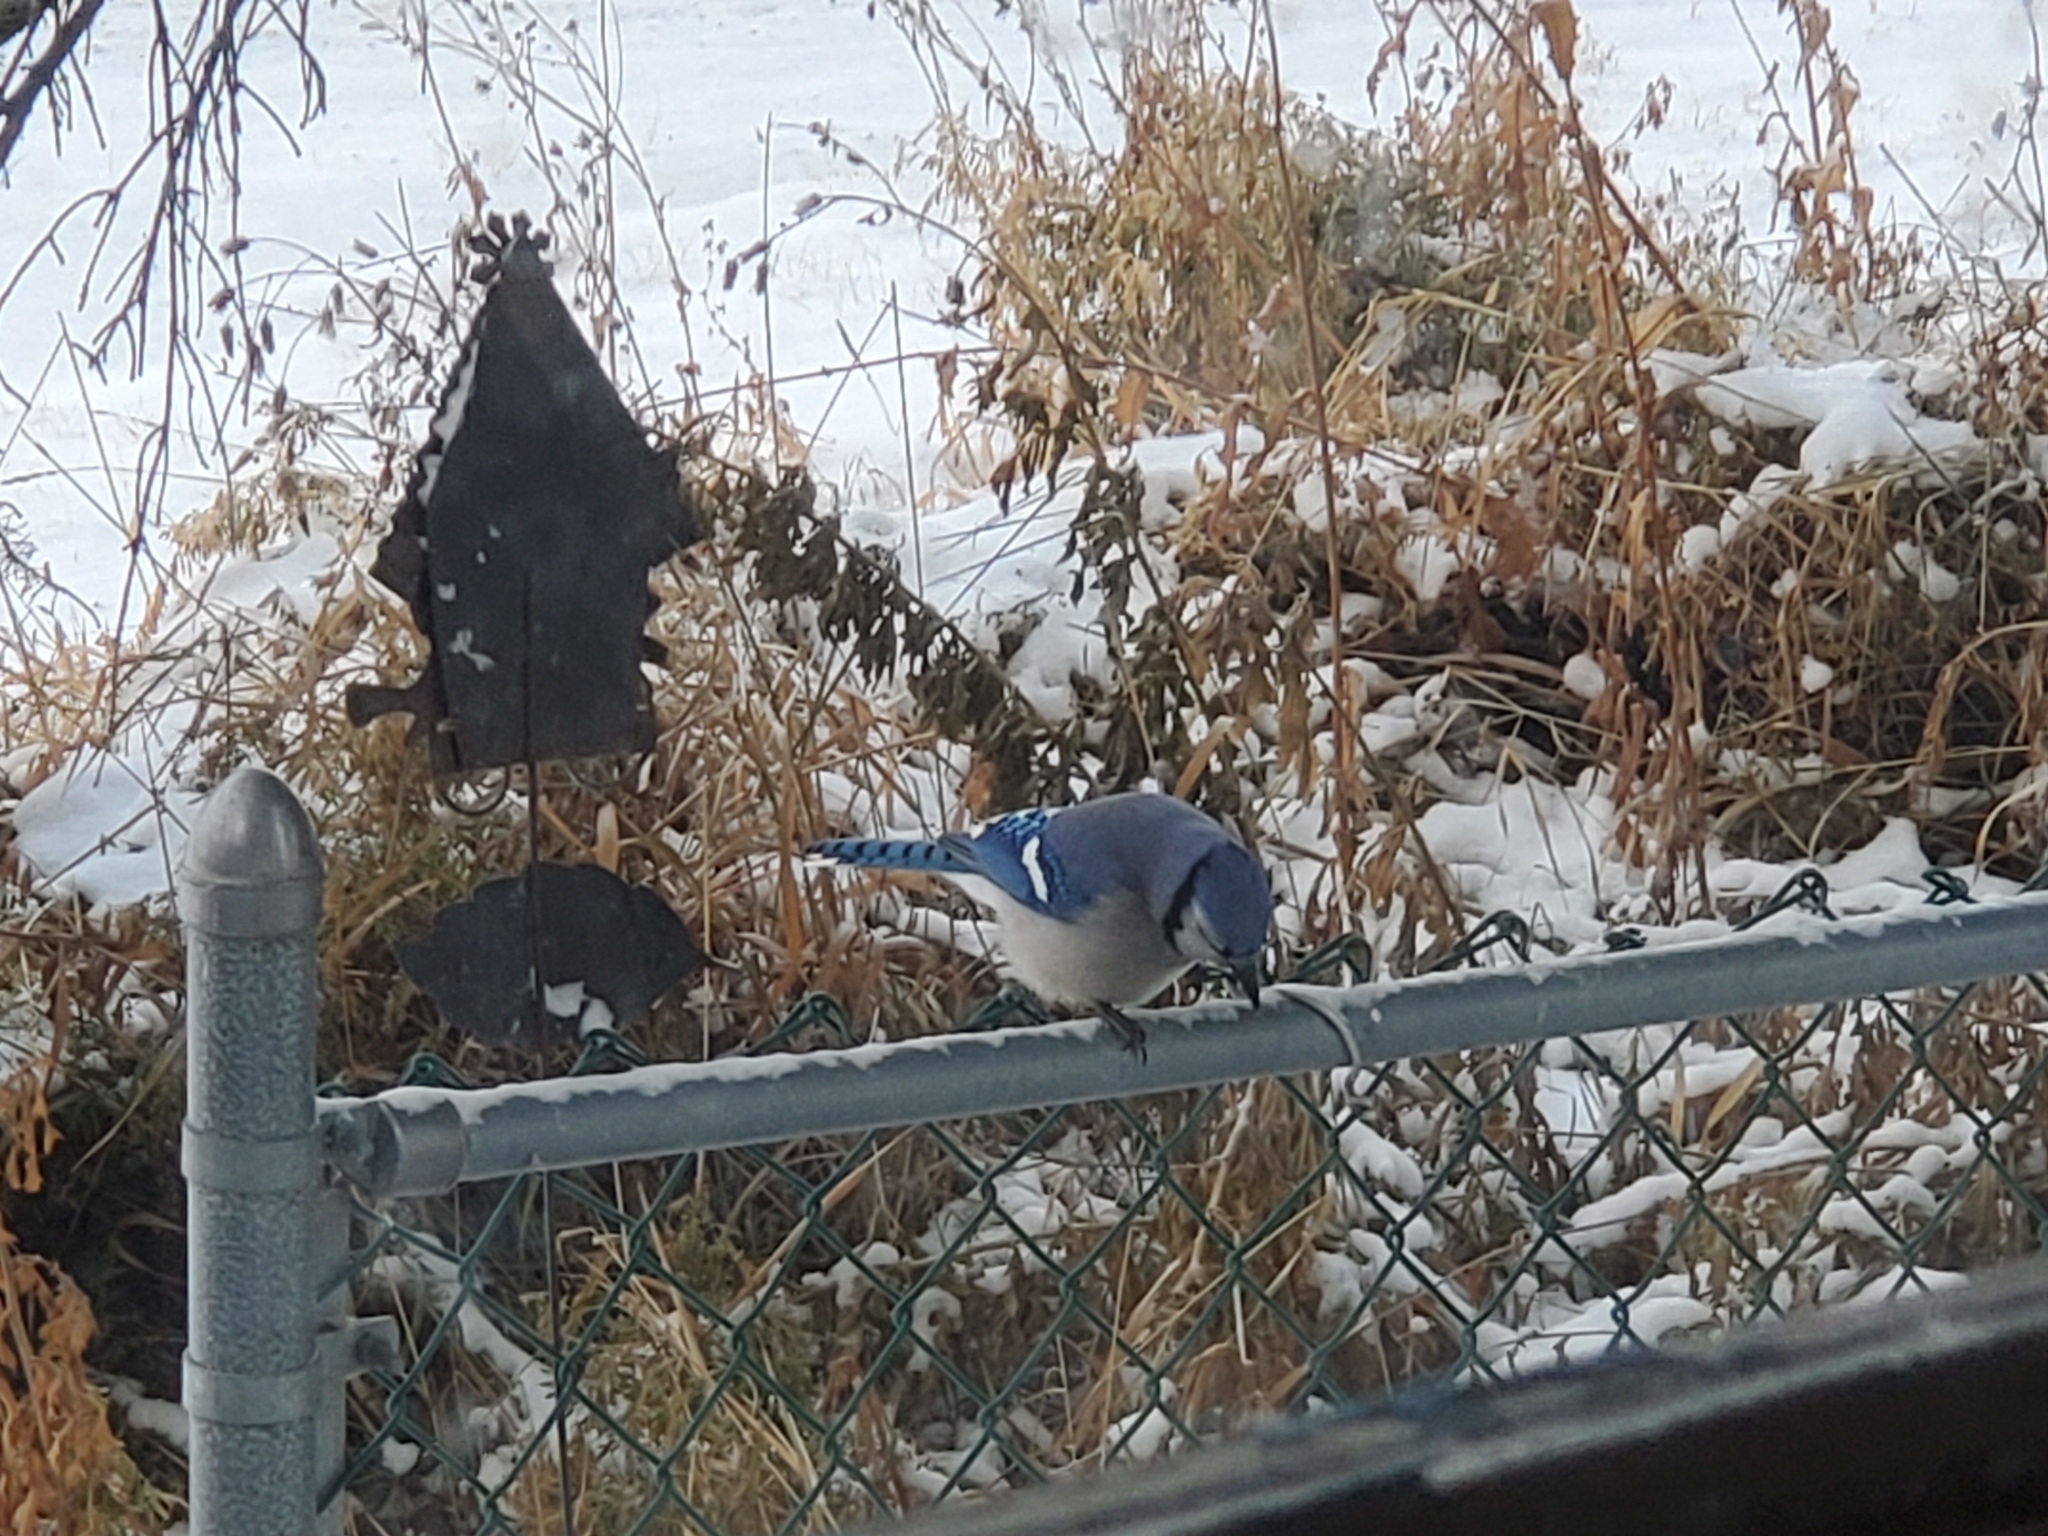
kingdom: Animalia
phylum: Chordata
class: Aves
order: Passeriformes
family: Corvidae
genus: Cyanocitta
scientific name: Cyanocitta cristata
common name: Blue jay
